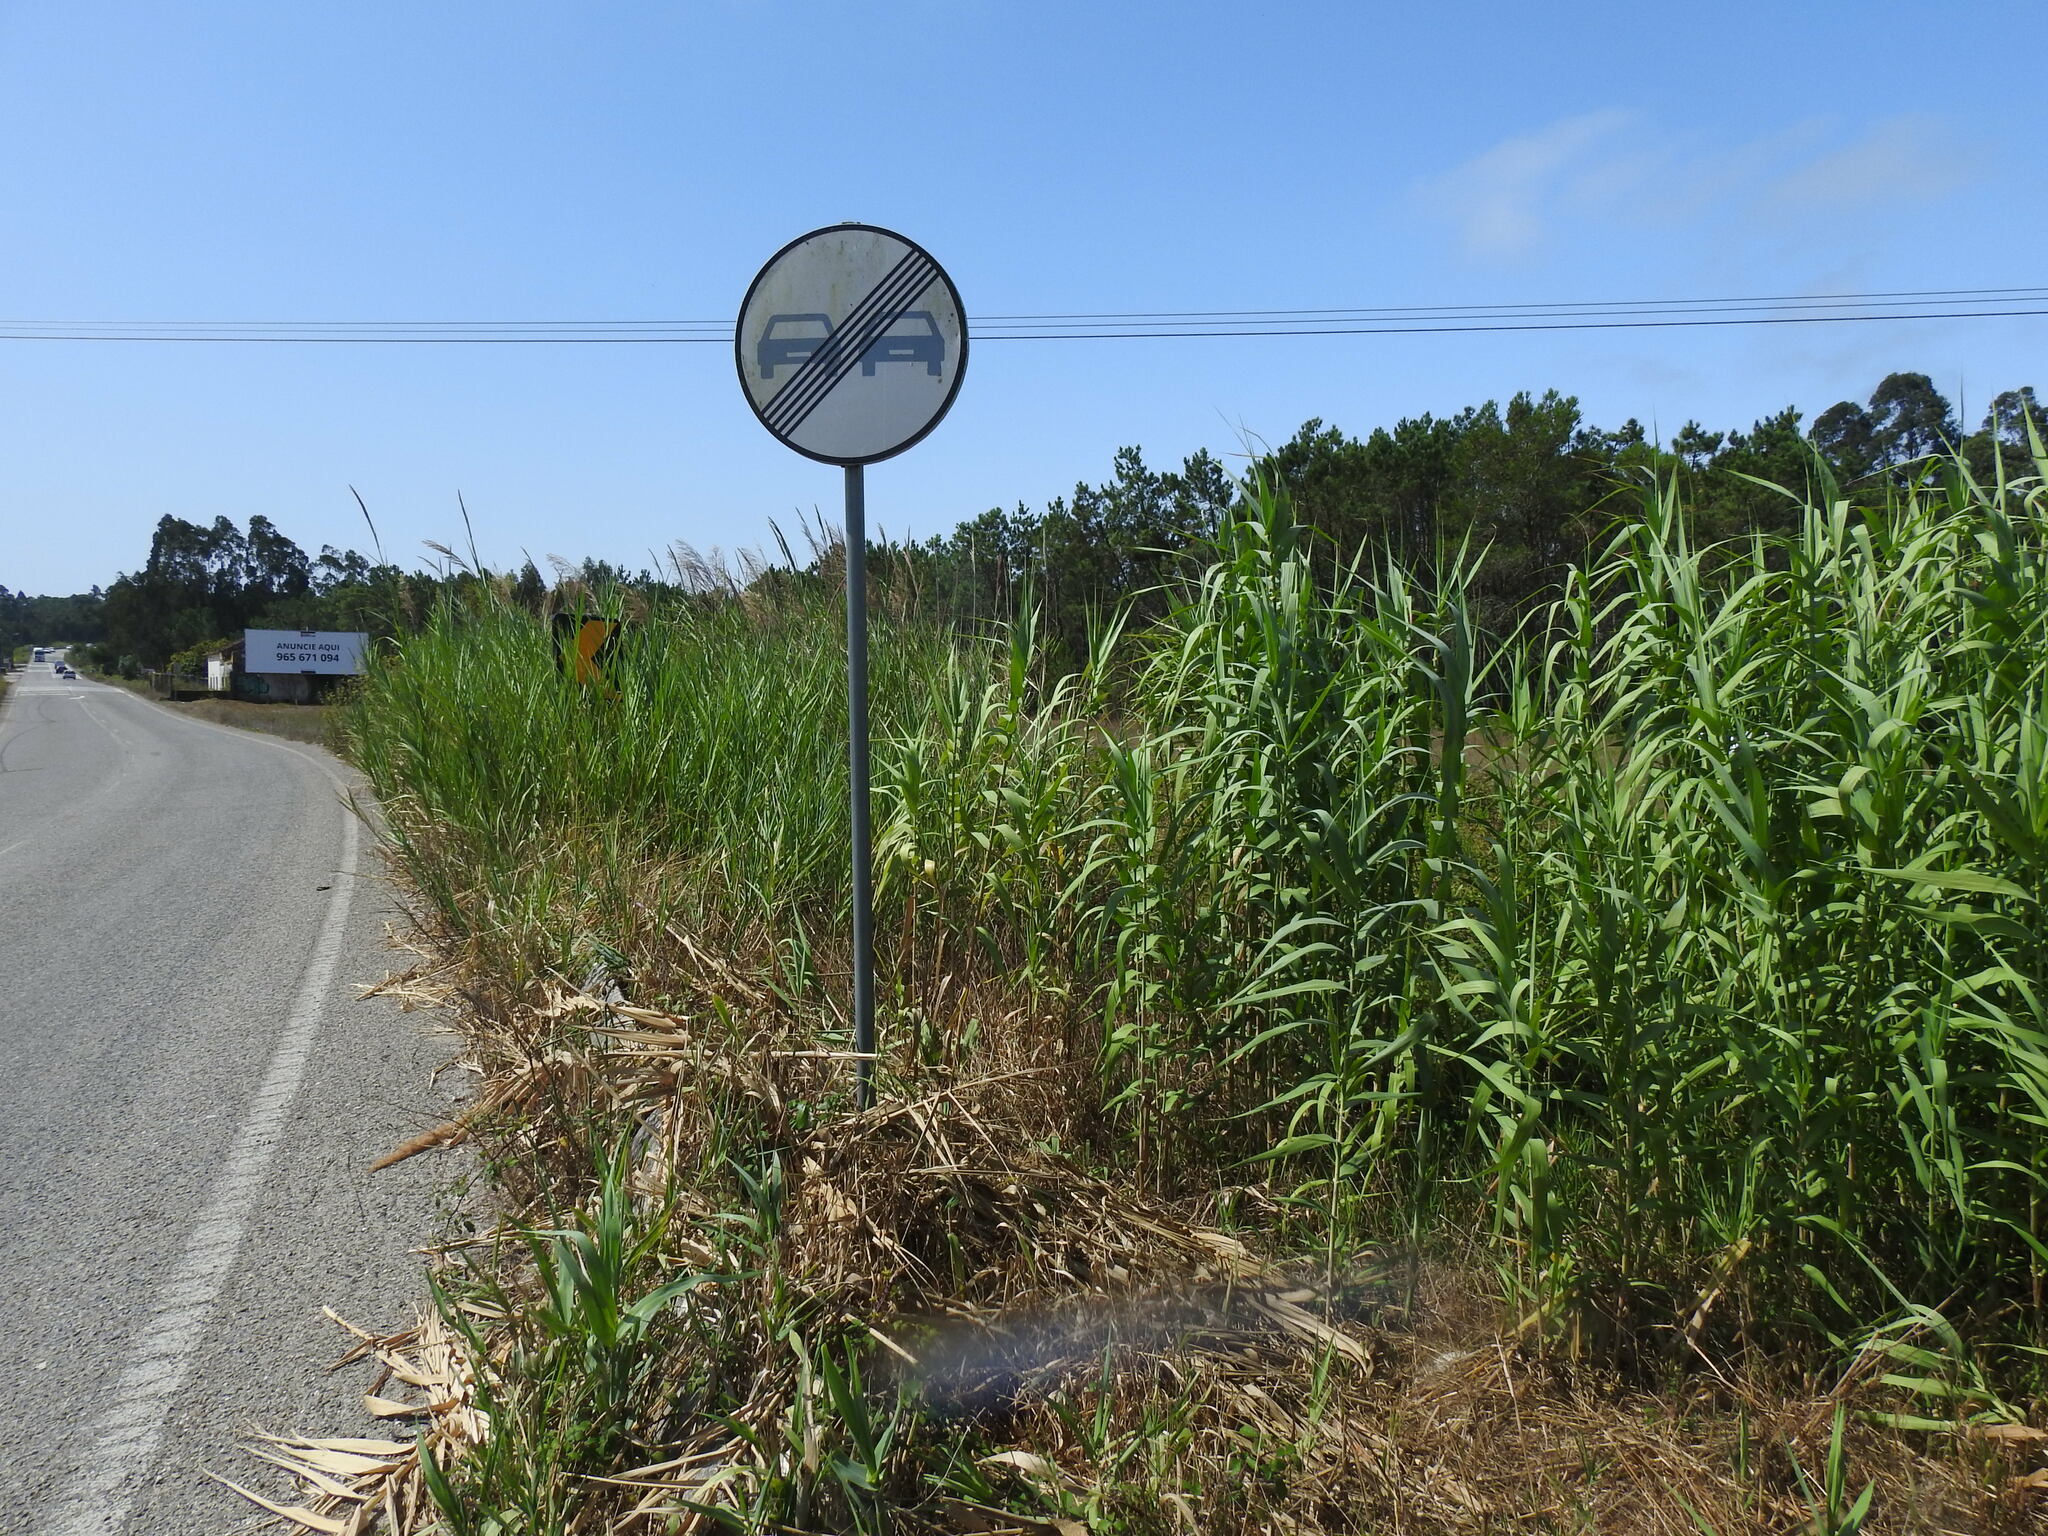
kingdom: Plantae
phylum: Tracheophyta
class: Liliopsida
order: Poales
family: Poaceae
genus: Arundo
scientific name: Arundo micrantha
